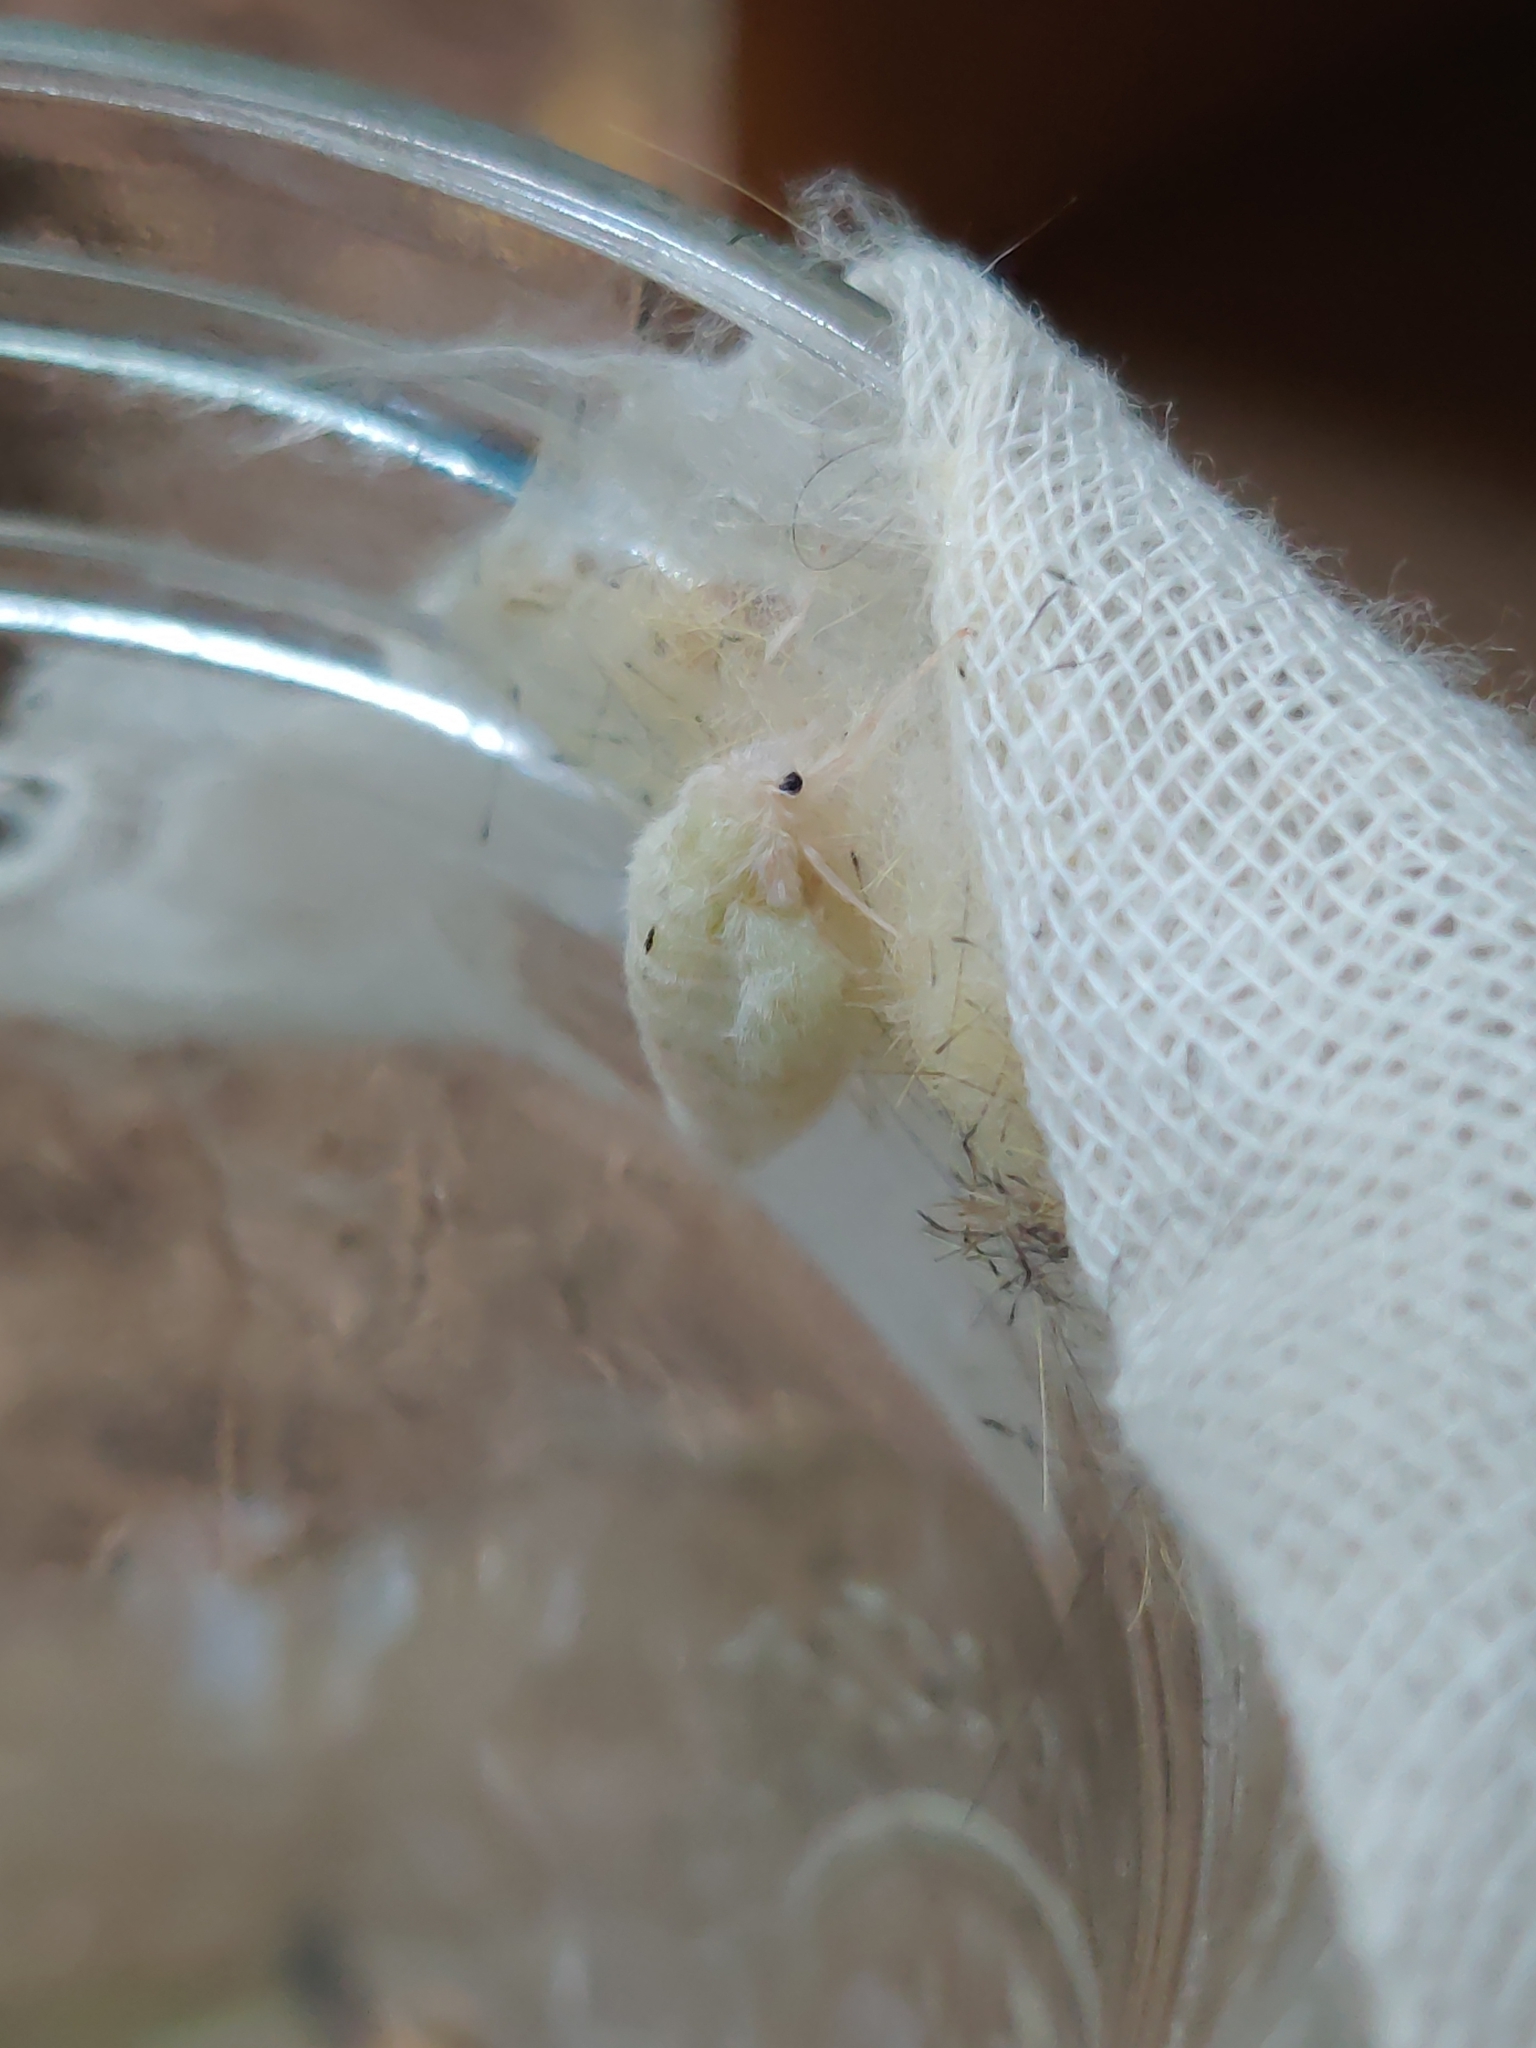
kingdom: Animalia
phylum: Arthropoda
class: Insecta
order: Lepidoptera
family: Erebidae
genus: Orgyia
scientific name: Orgyia leucostigma
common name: White-marked tussock moth
